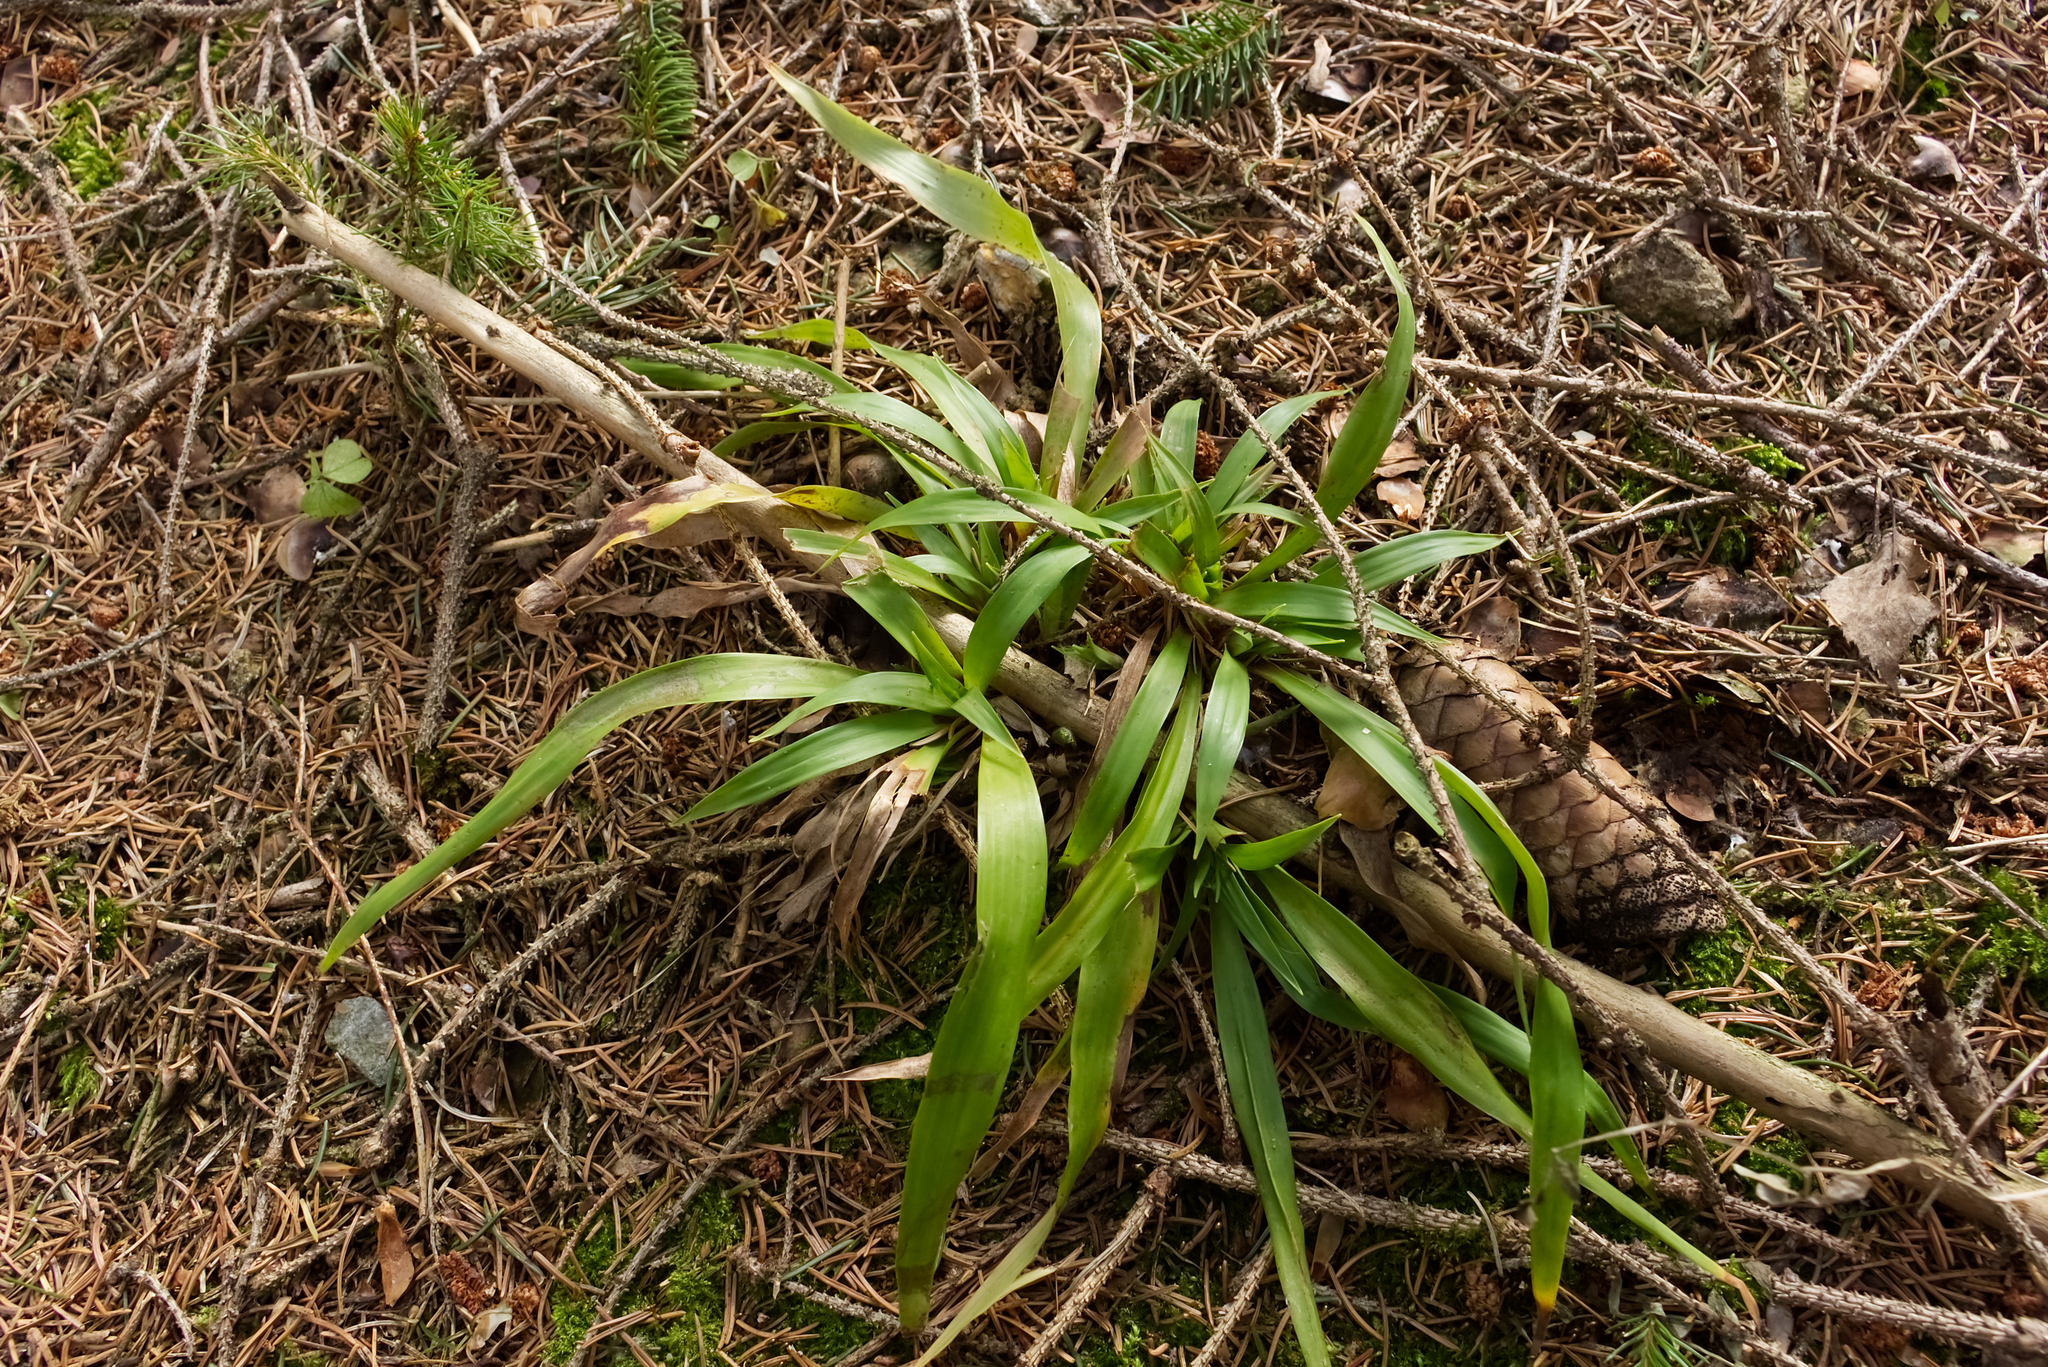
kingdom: Plantae
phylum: Tracheophyta
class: Liliopsida
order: Poales
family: Juncaceae
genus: Luzula
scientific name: Luzula pilosa
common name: Hairy wood-rush
